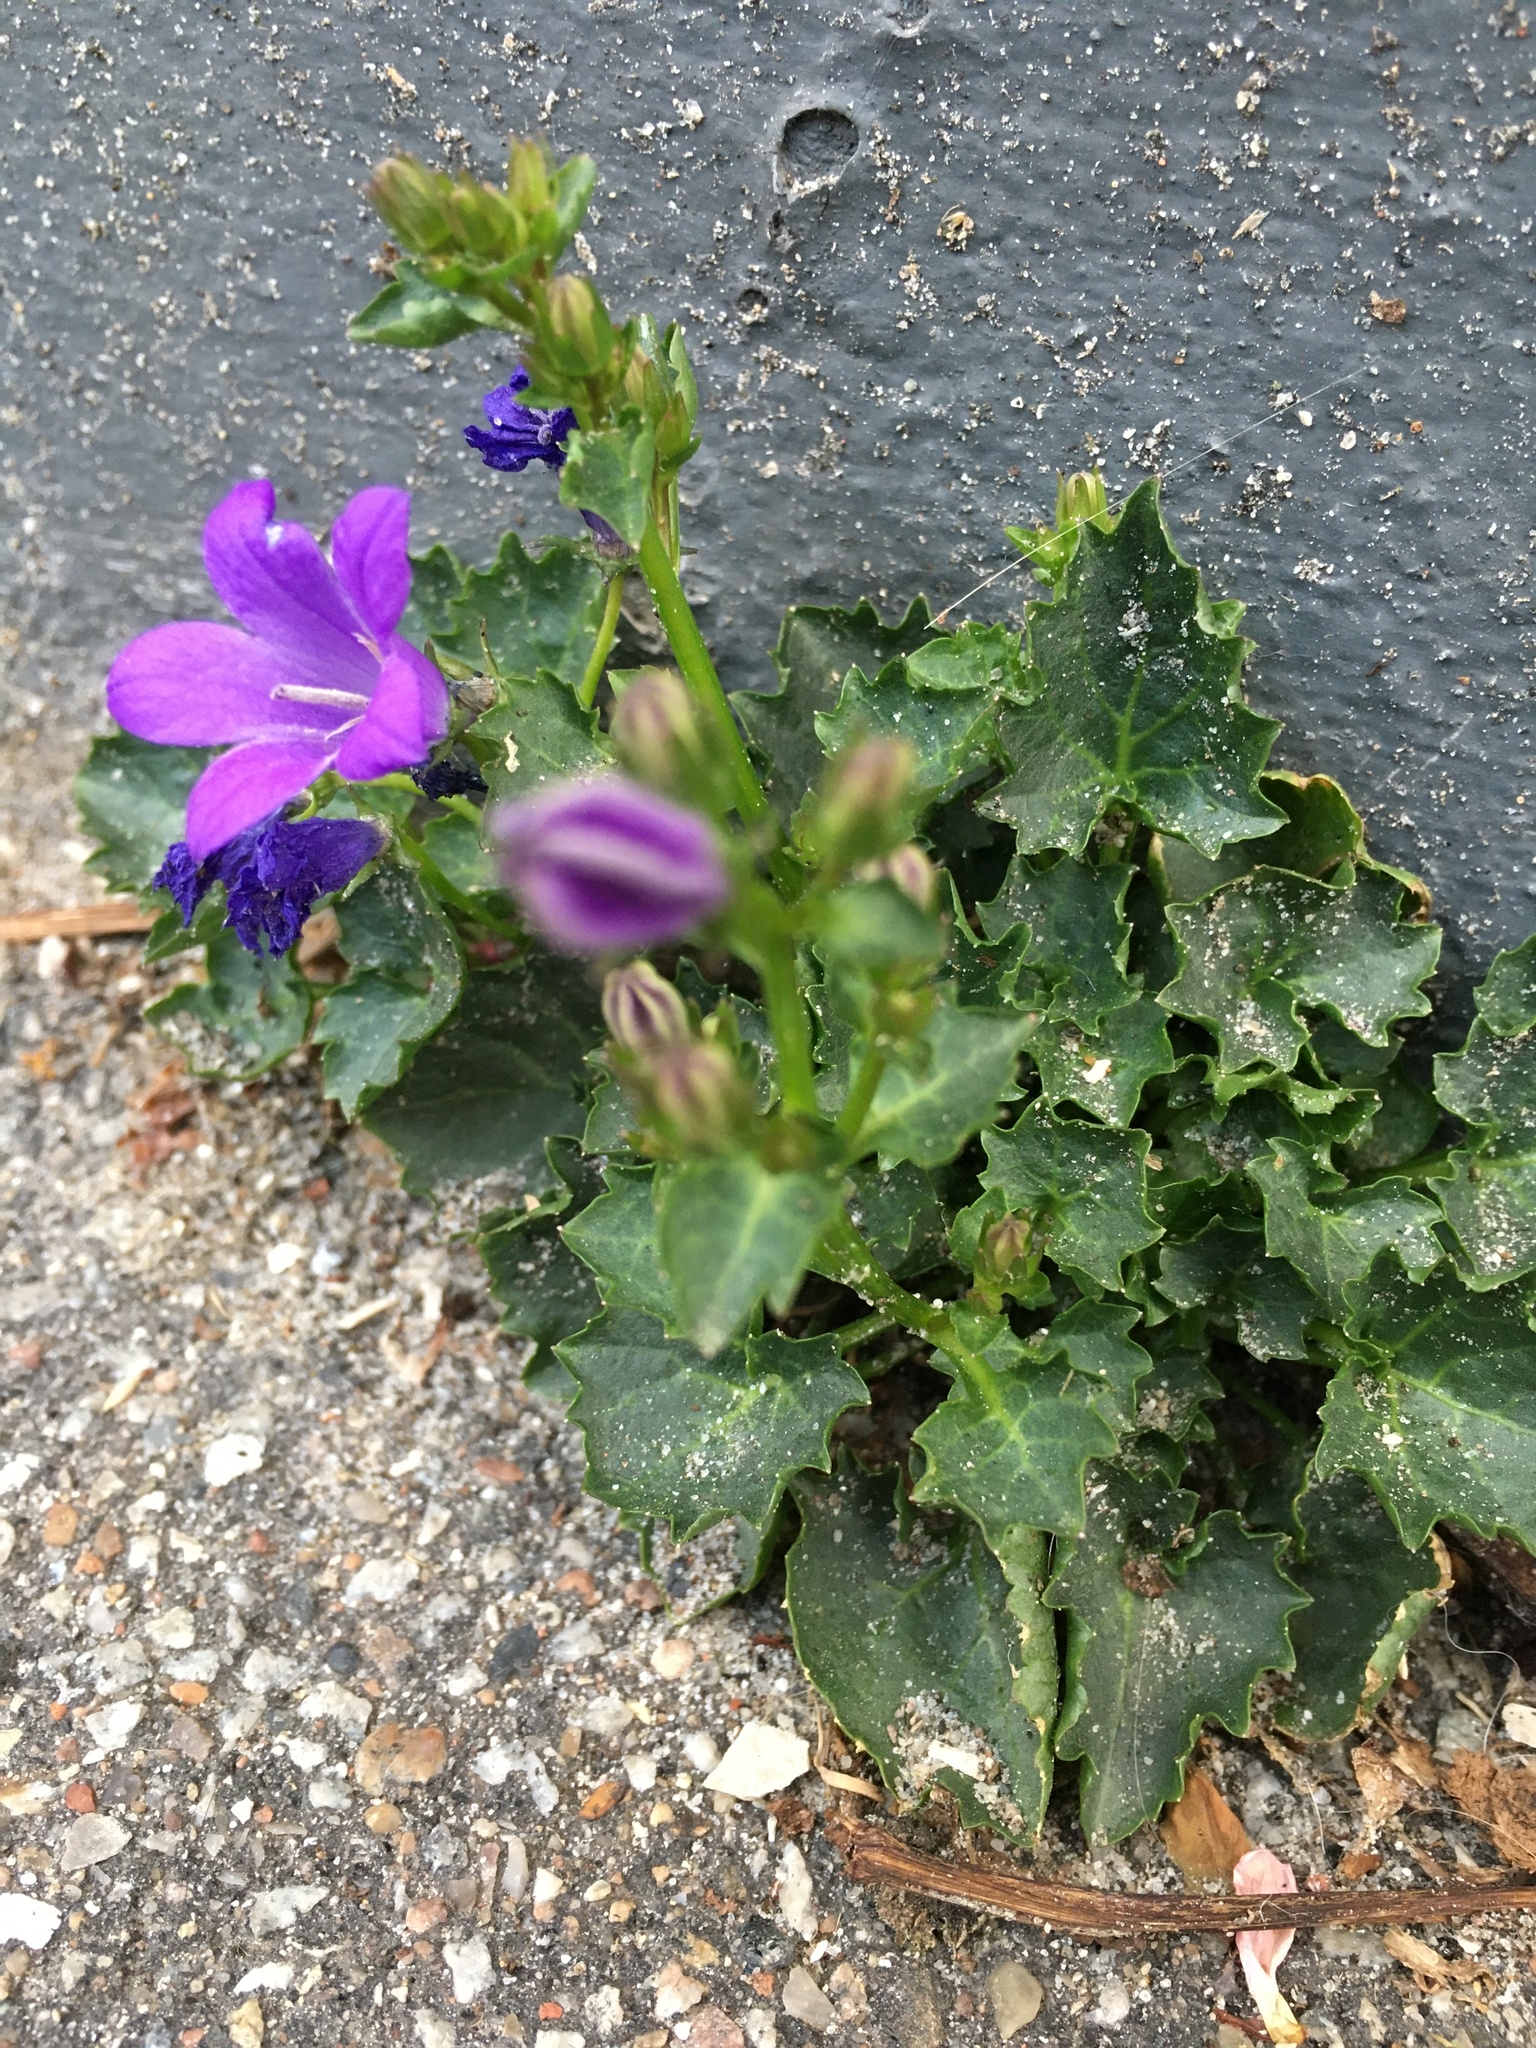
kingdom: Plantae
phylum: Tracheophyta
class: Magnoliopsida
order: Asterales
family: Campanulaceae
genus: Campanula
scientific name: Campanula poscharskyana
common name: Trailing bellflower
